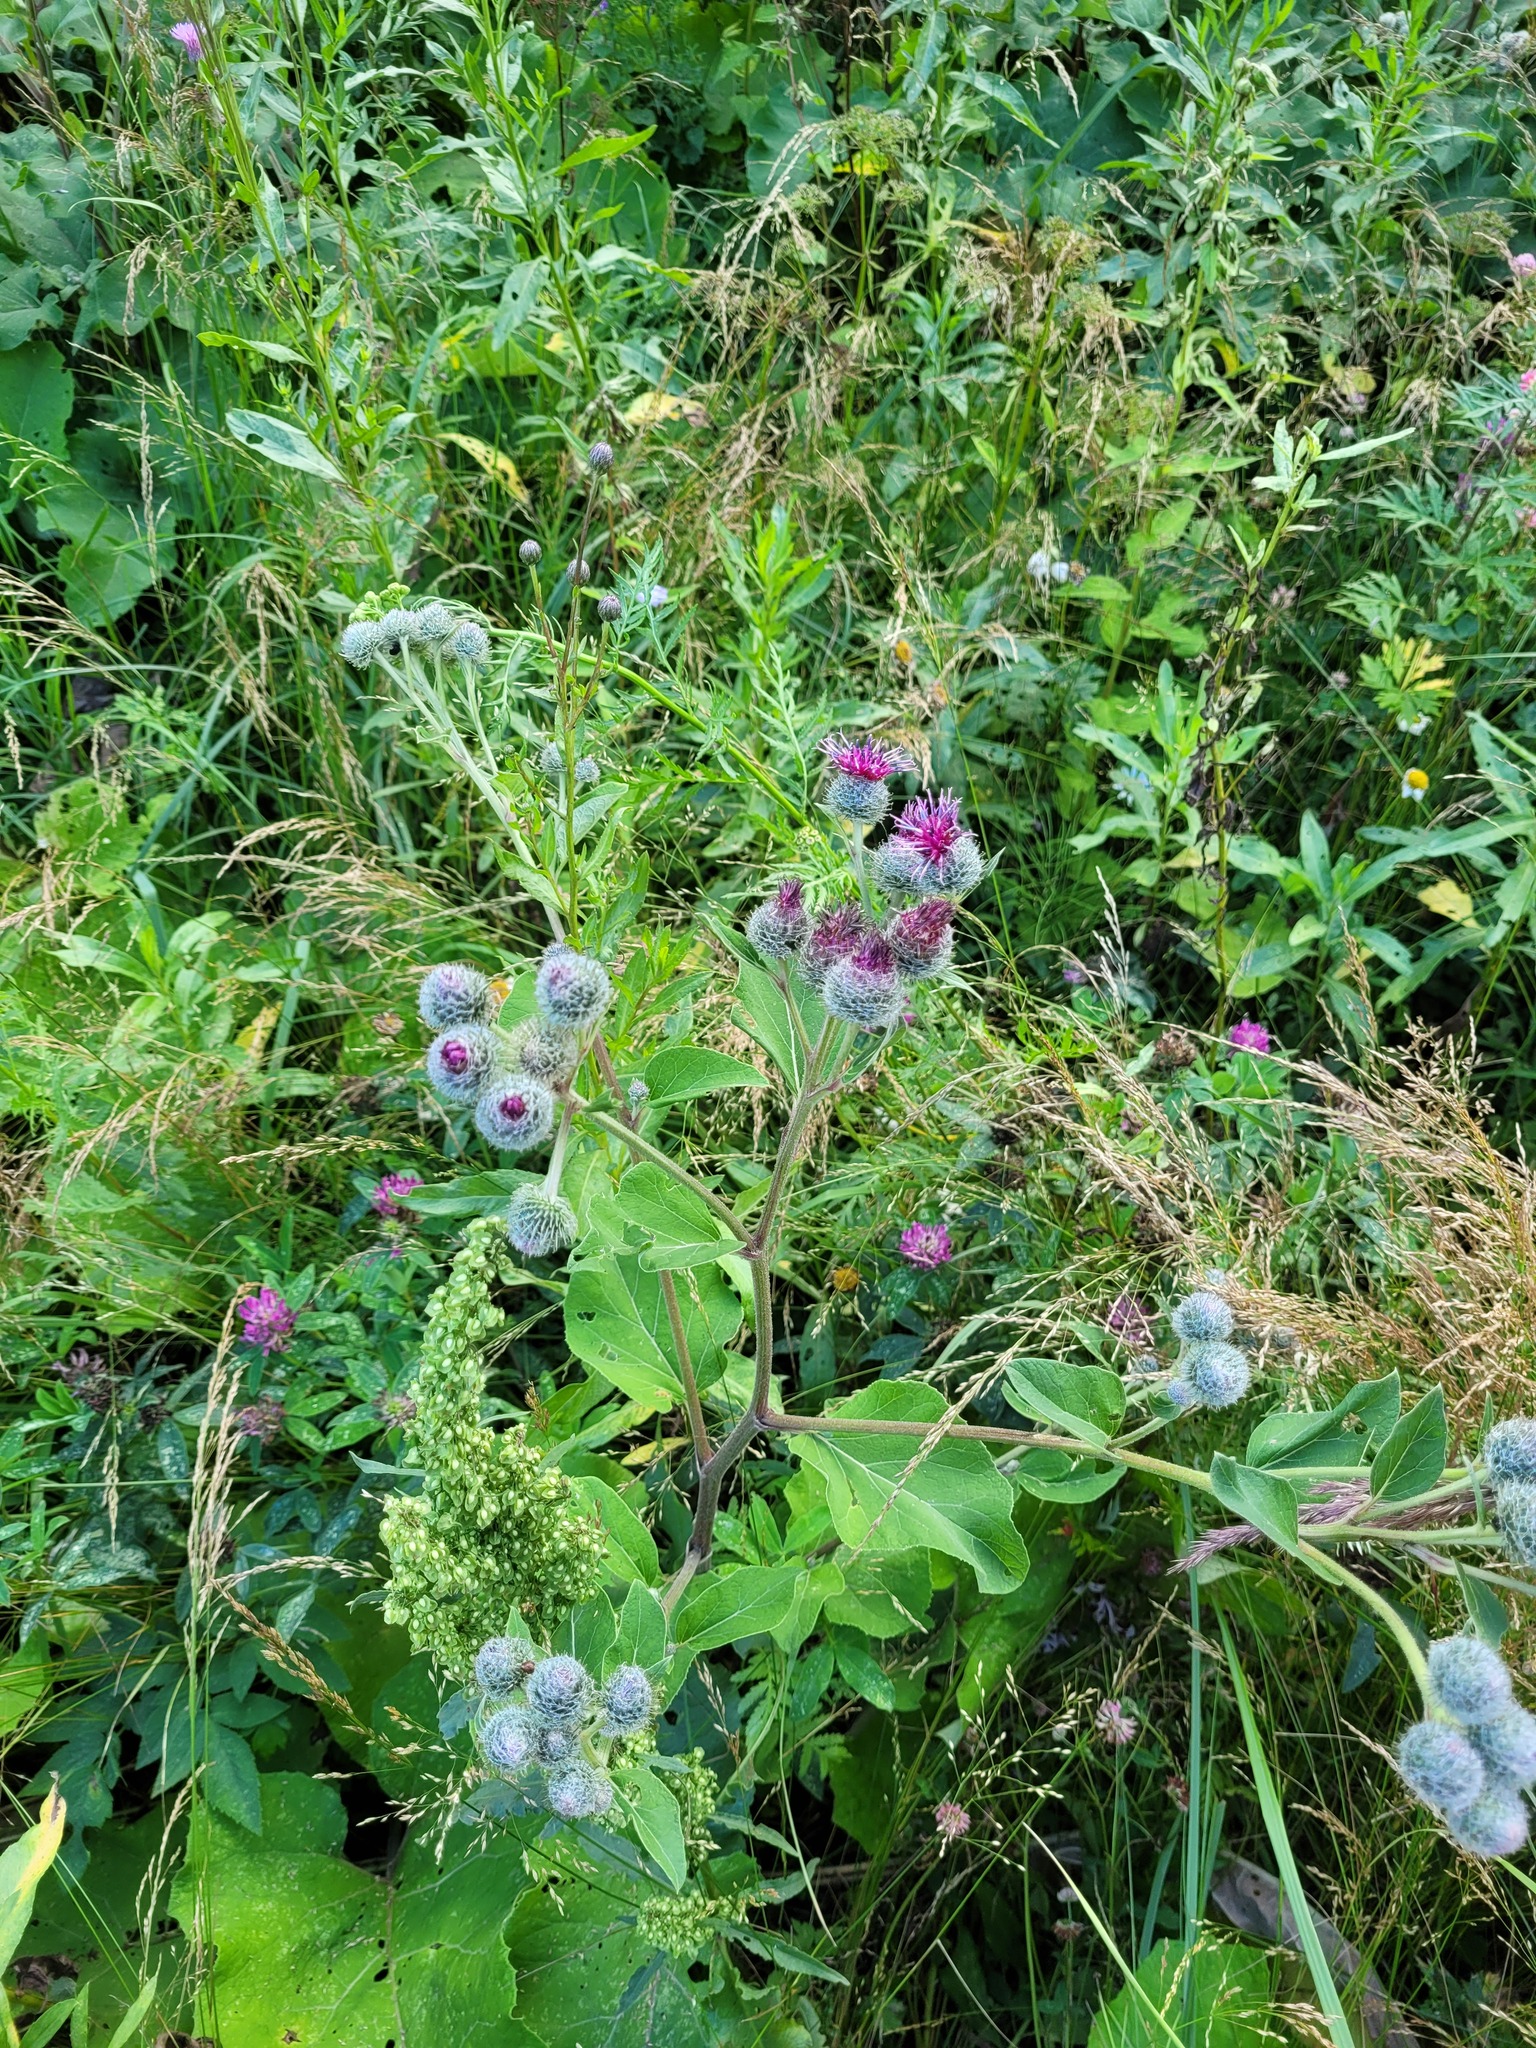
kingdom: Plantae
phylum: Tracheophyta
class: Magnoliopsida
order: Asterales
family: Asteraceae
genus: Arctium
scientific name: Arctium tomentosum
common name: Woolly burdock
